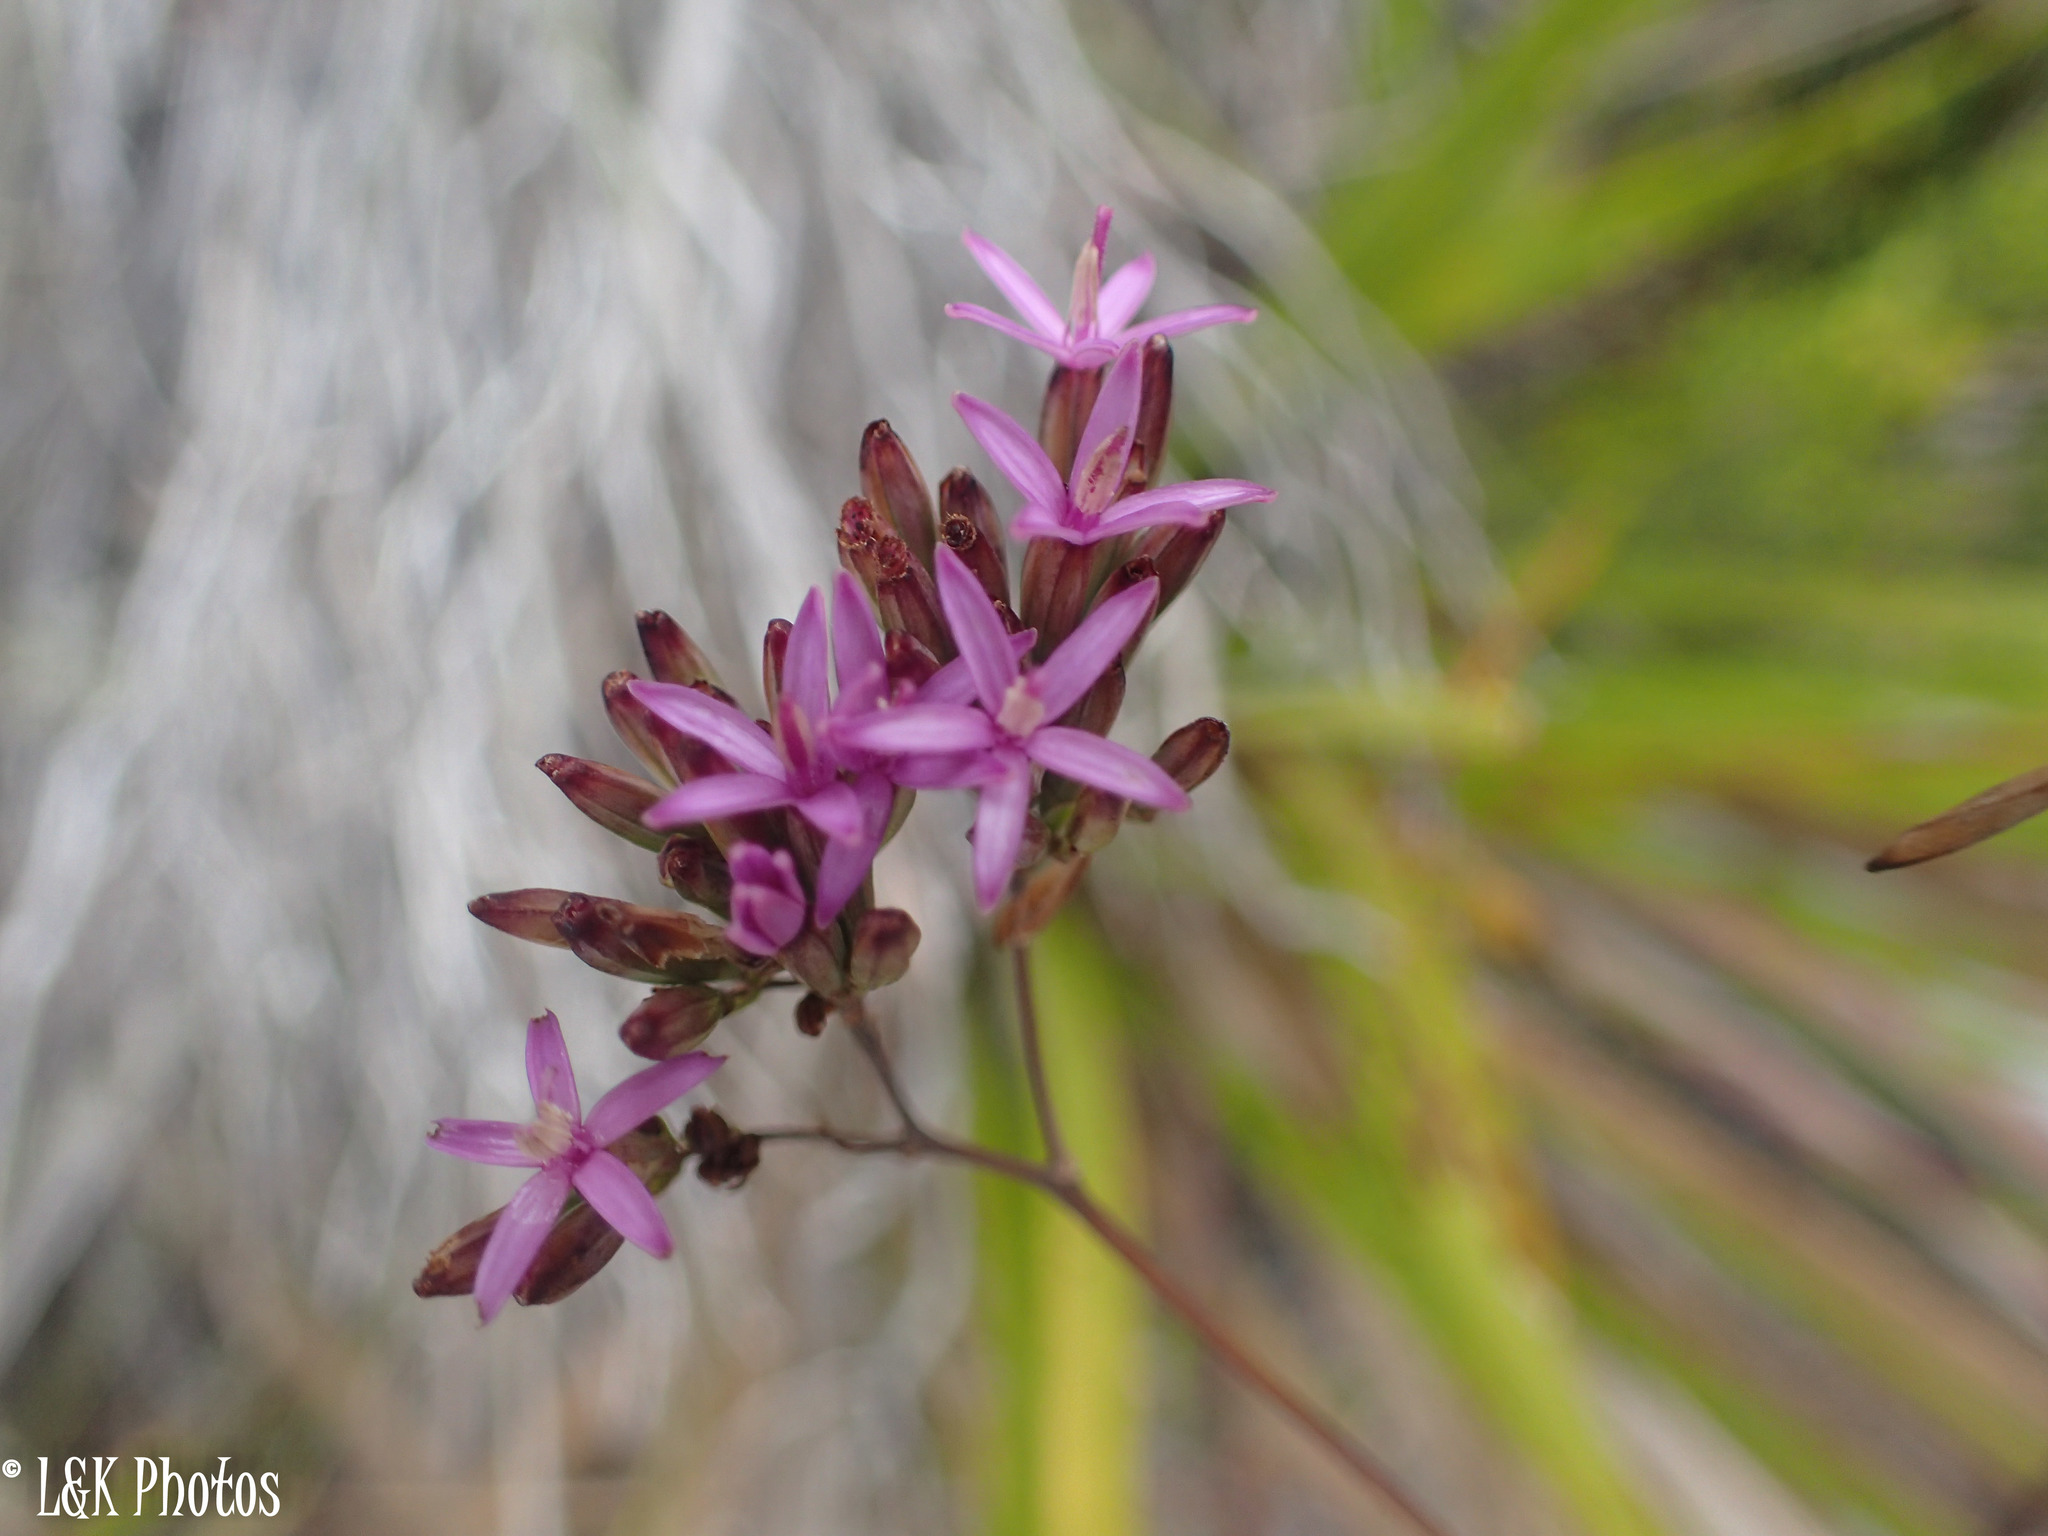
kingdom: Plantae
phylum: Tracheophyta
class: Magnoliopsida
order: Asterales
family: Asteraceae
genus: Corymbium
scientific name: Corymbium glabrum
